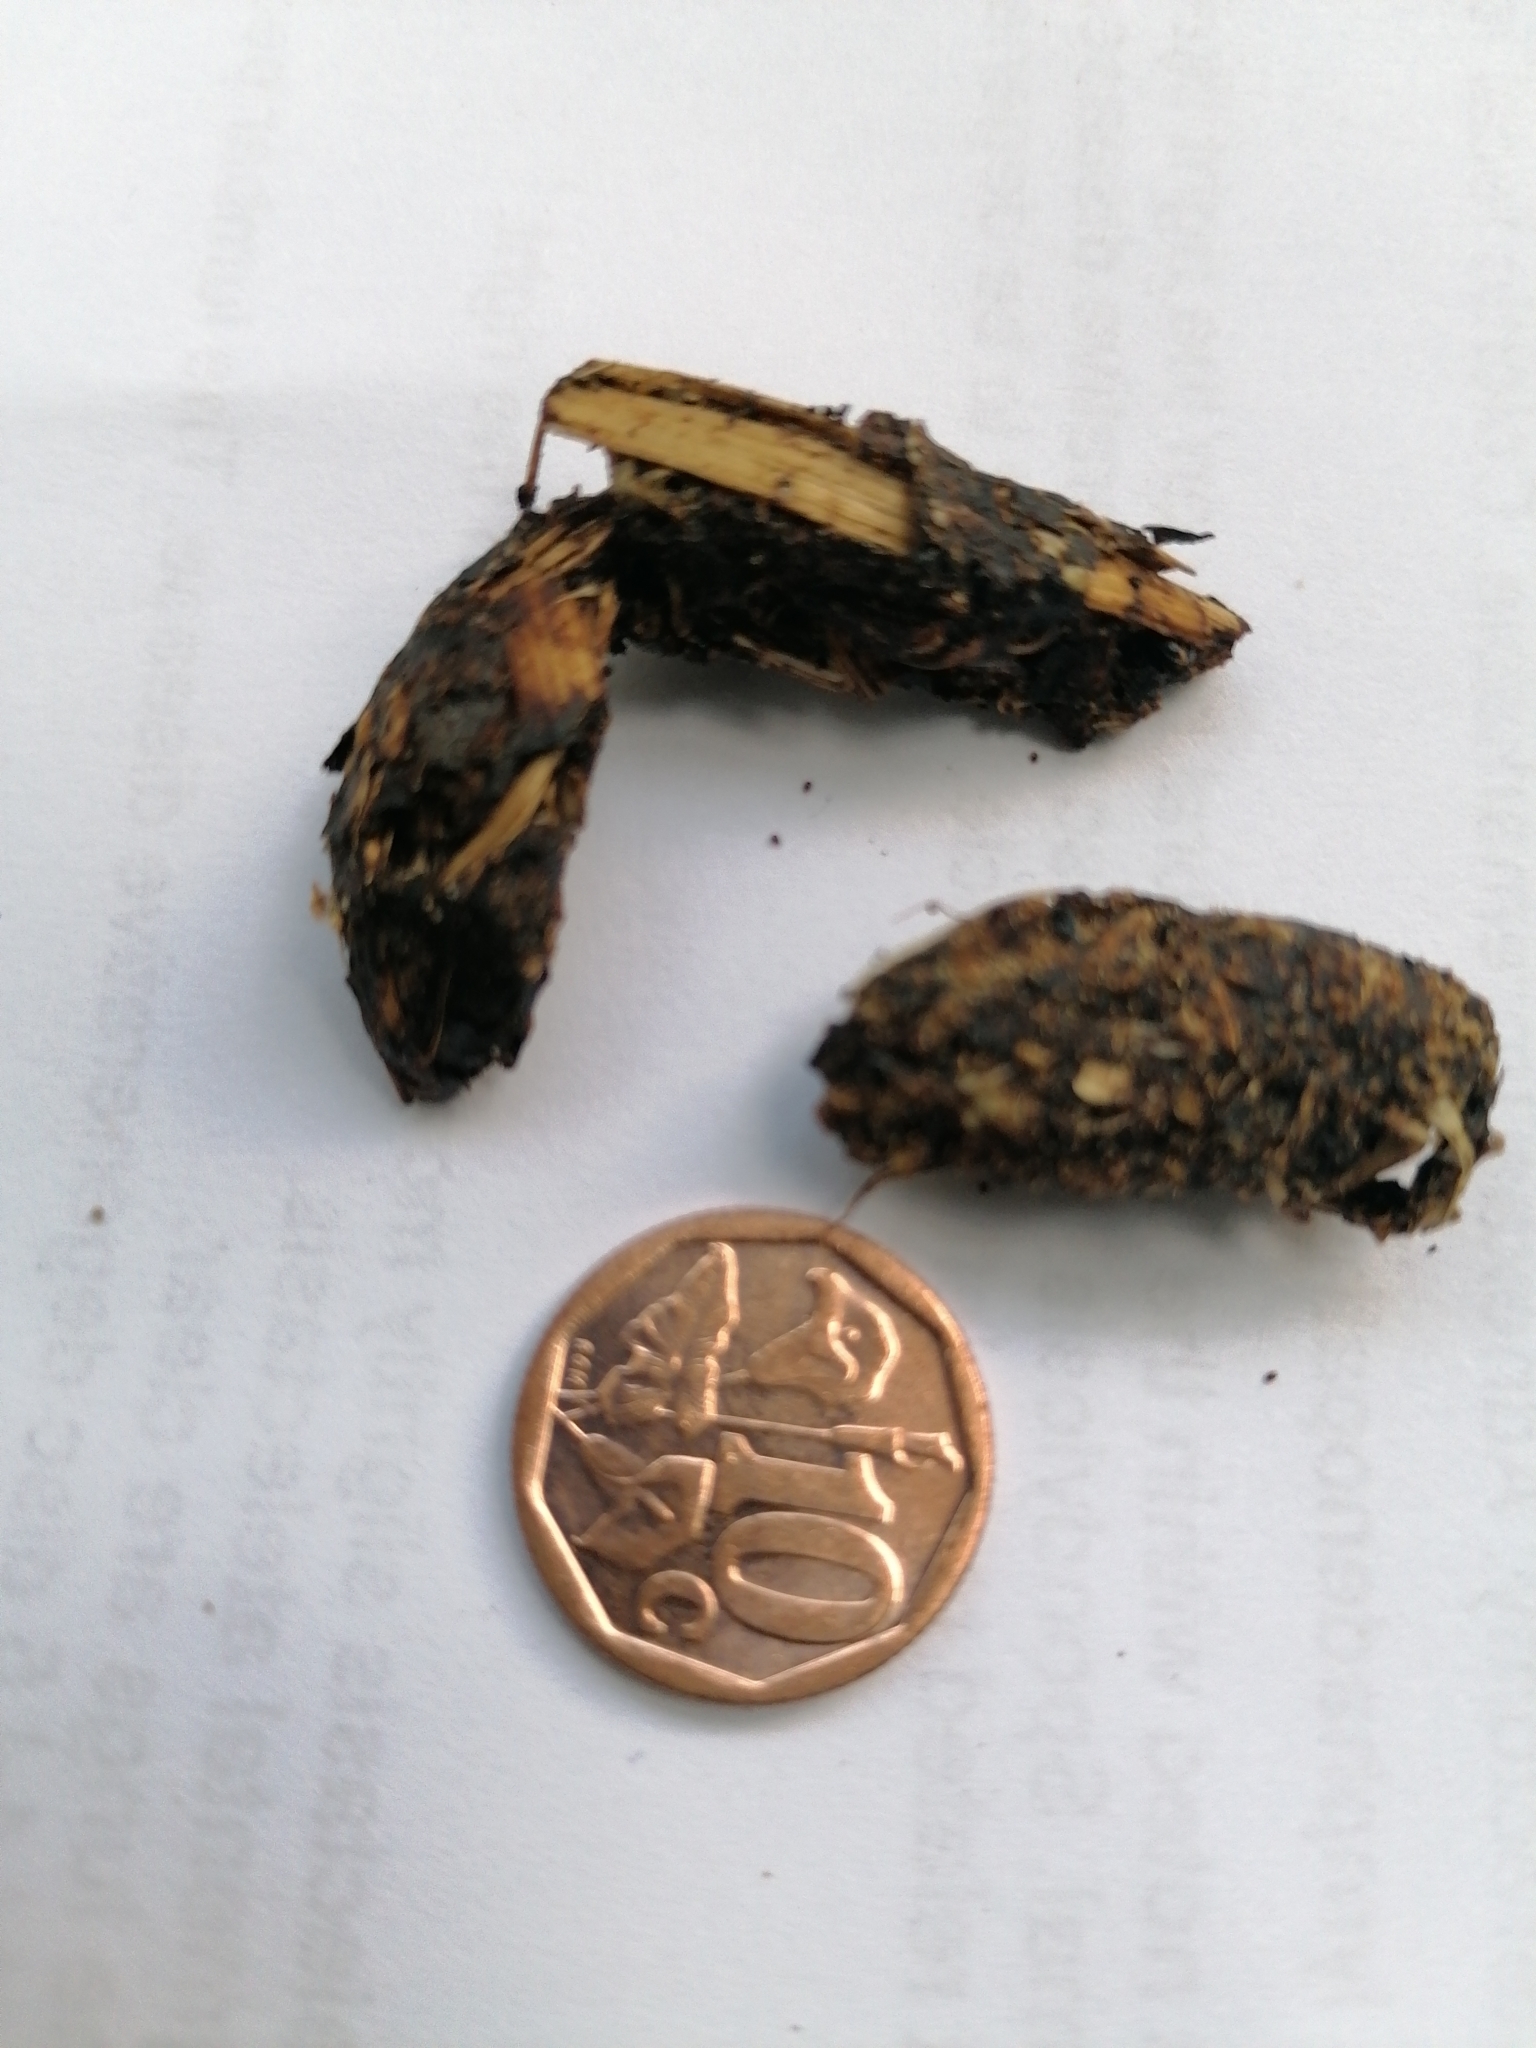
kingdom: Animalia
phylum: Chordata
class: Mammalia
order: Rodentia
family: Hystricidae
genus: Hystrix
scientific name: Hystrix africaeaustralis
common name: Cape porcupine
